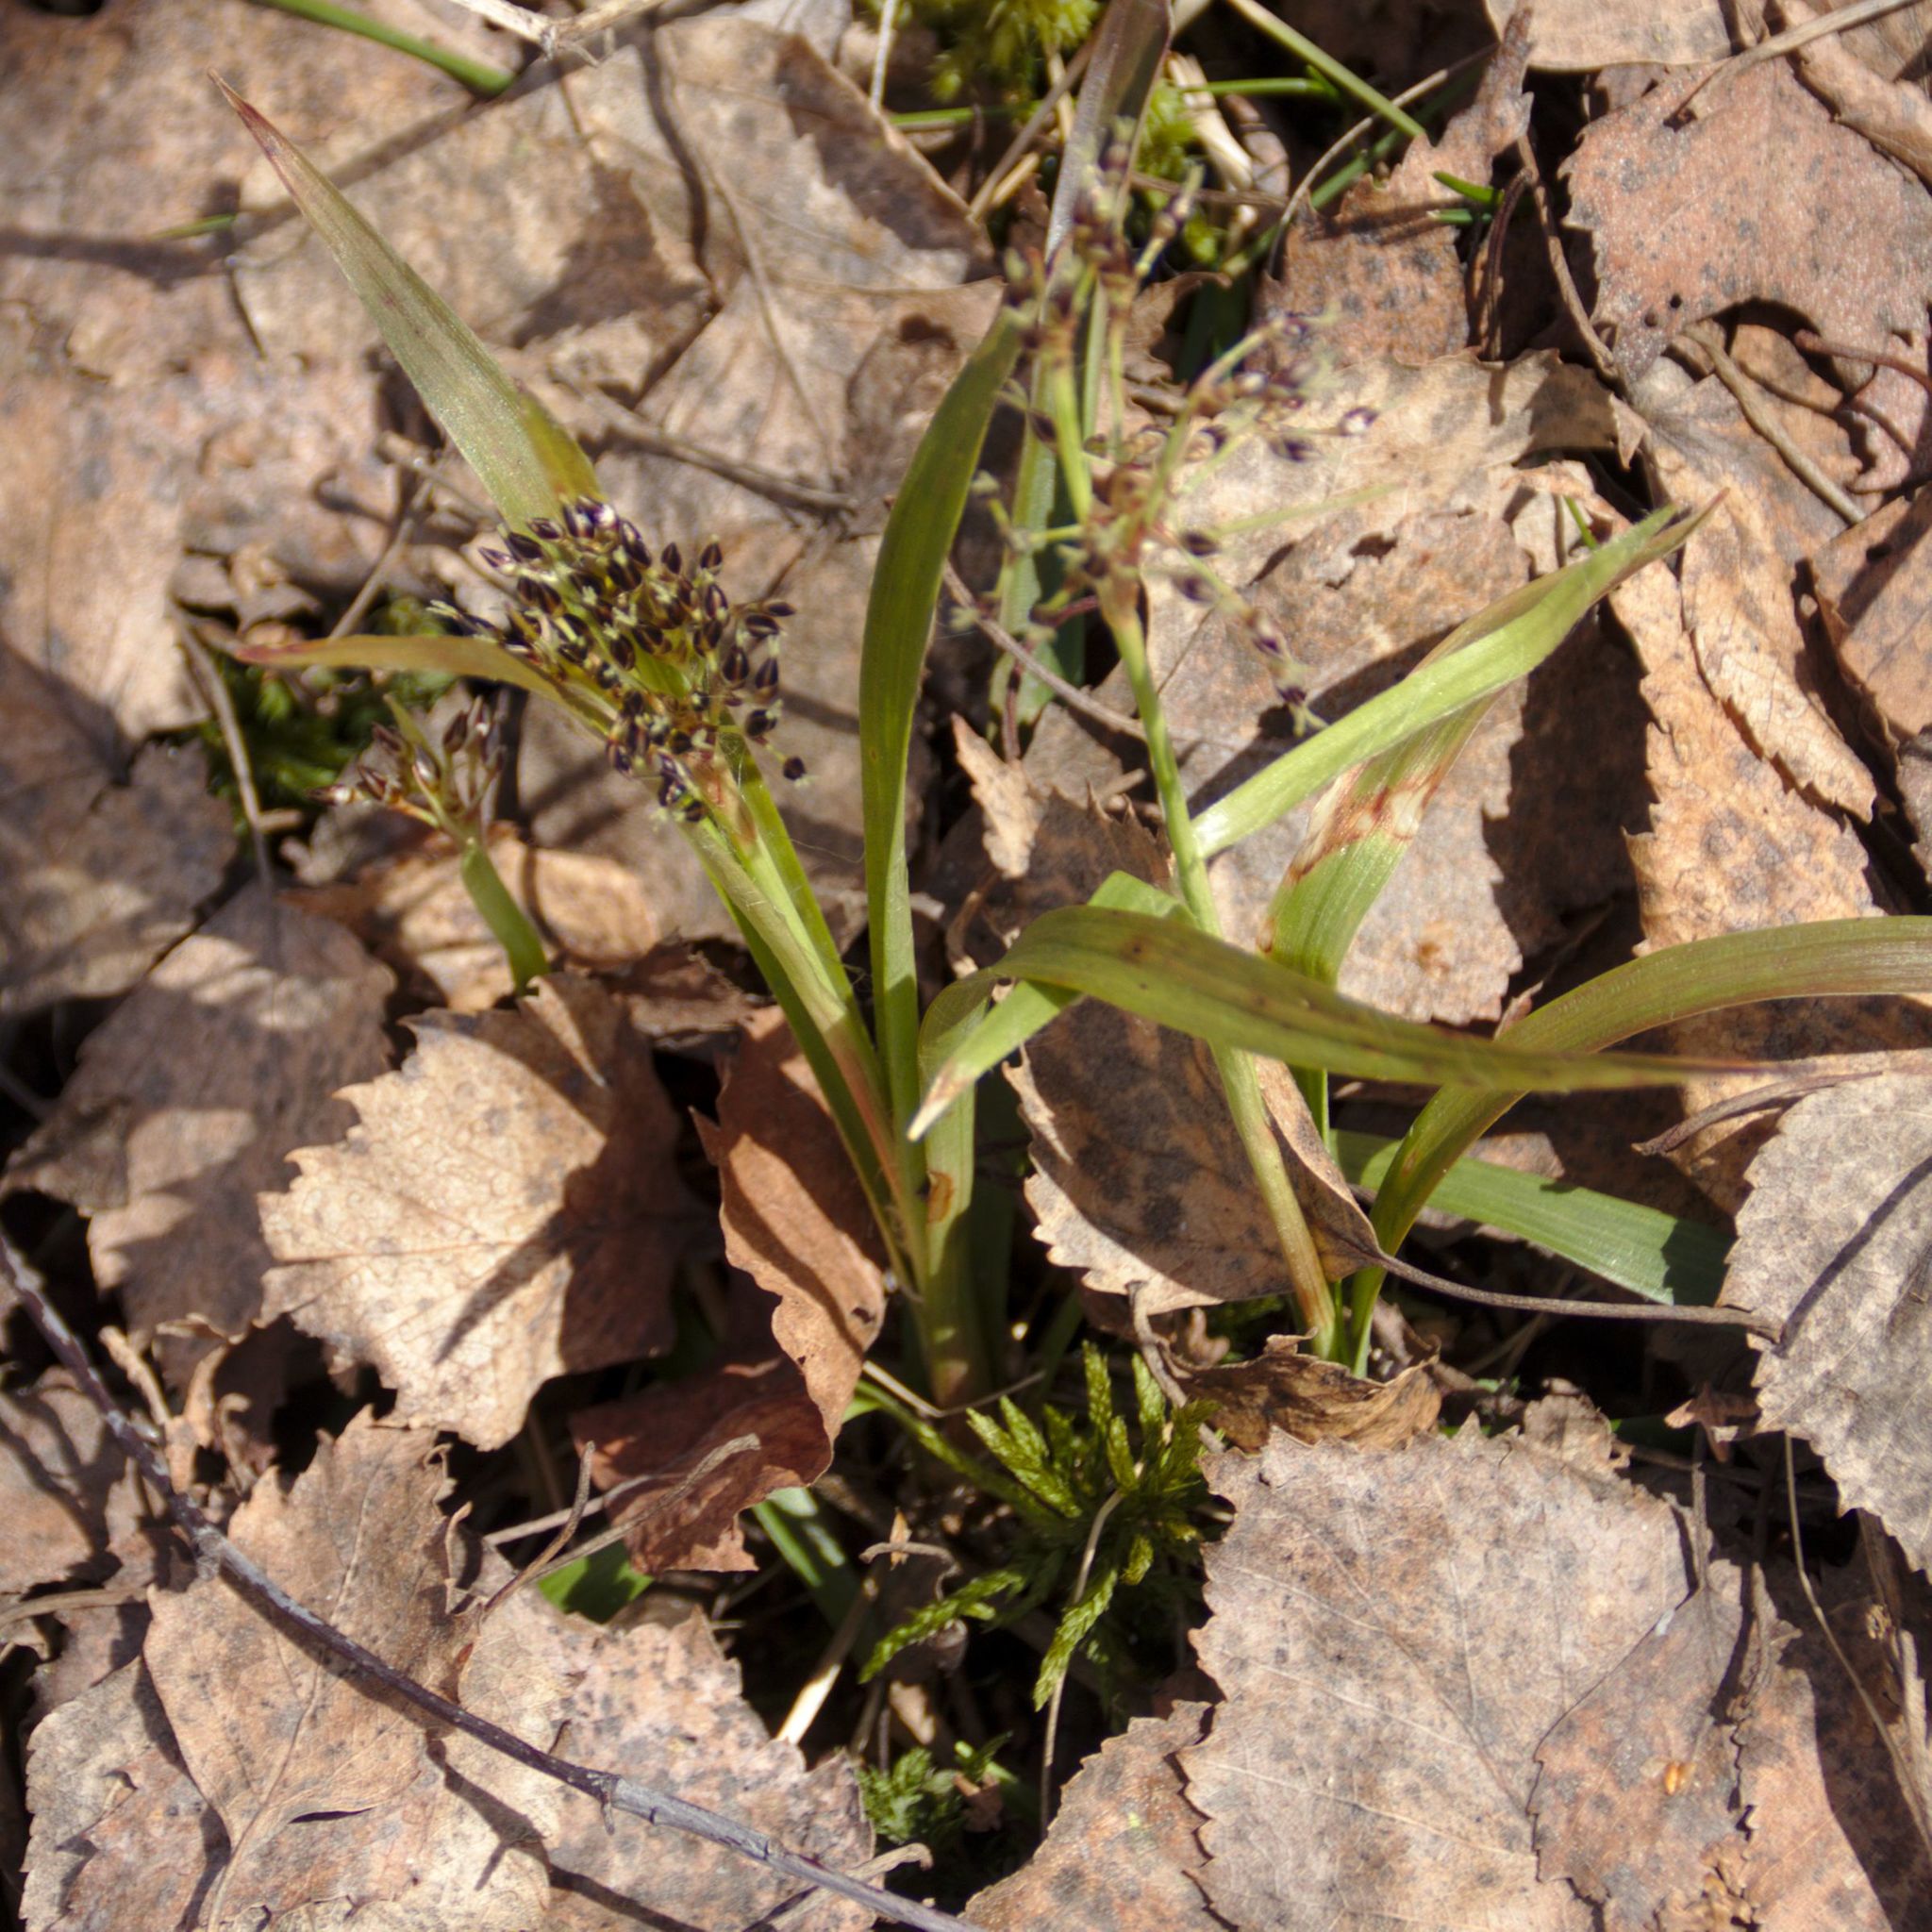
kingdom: Plantae
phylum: Tracheophyta
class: Liliopsida
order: Poales
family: Juncaceae
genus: Luzula
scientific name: Luzula pilosa
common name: Hairy wood-rush
